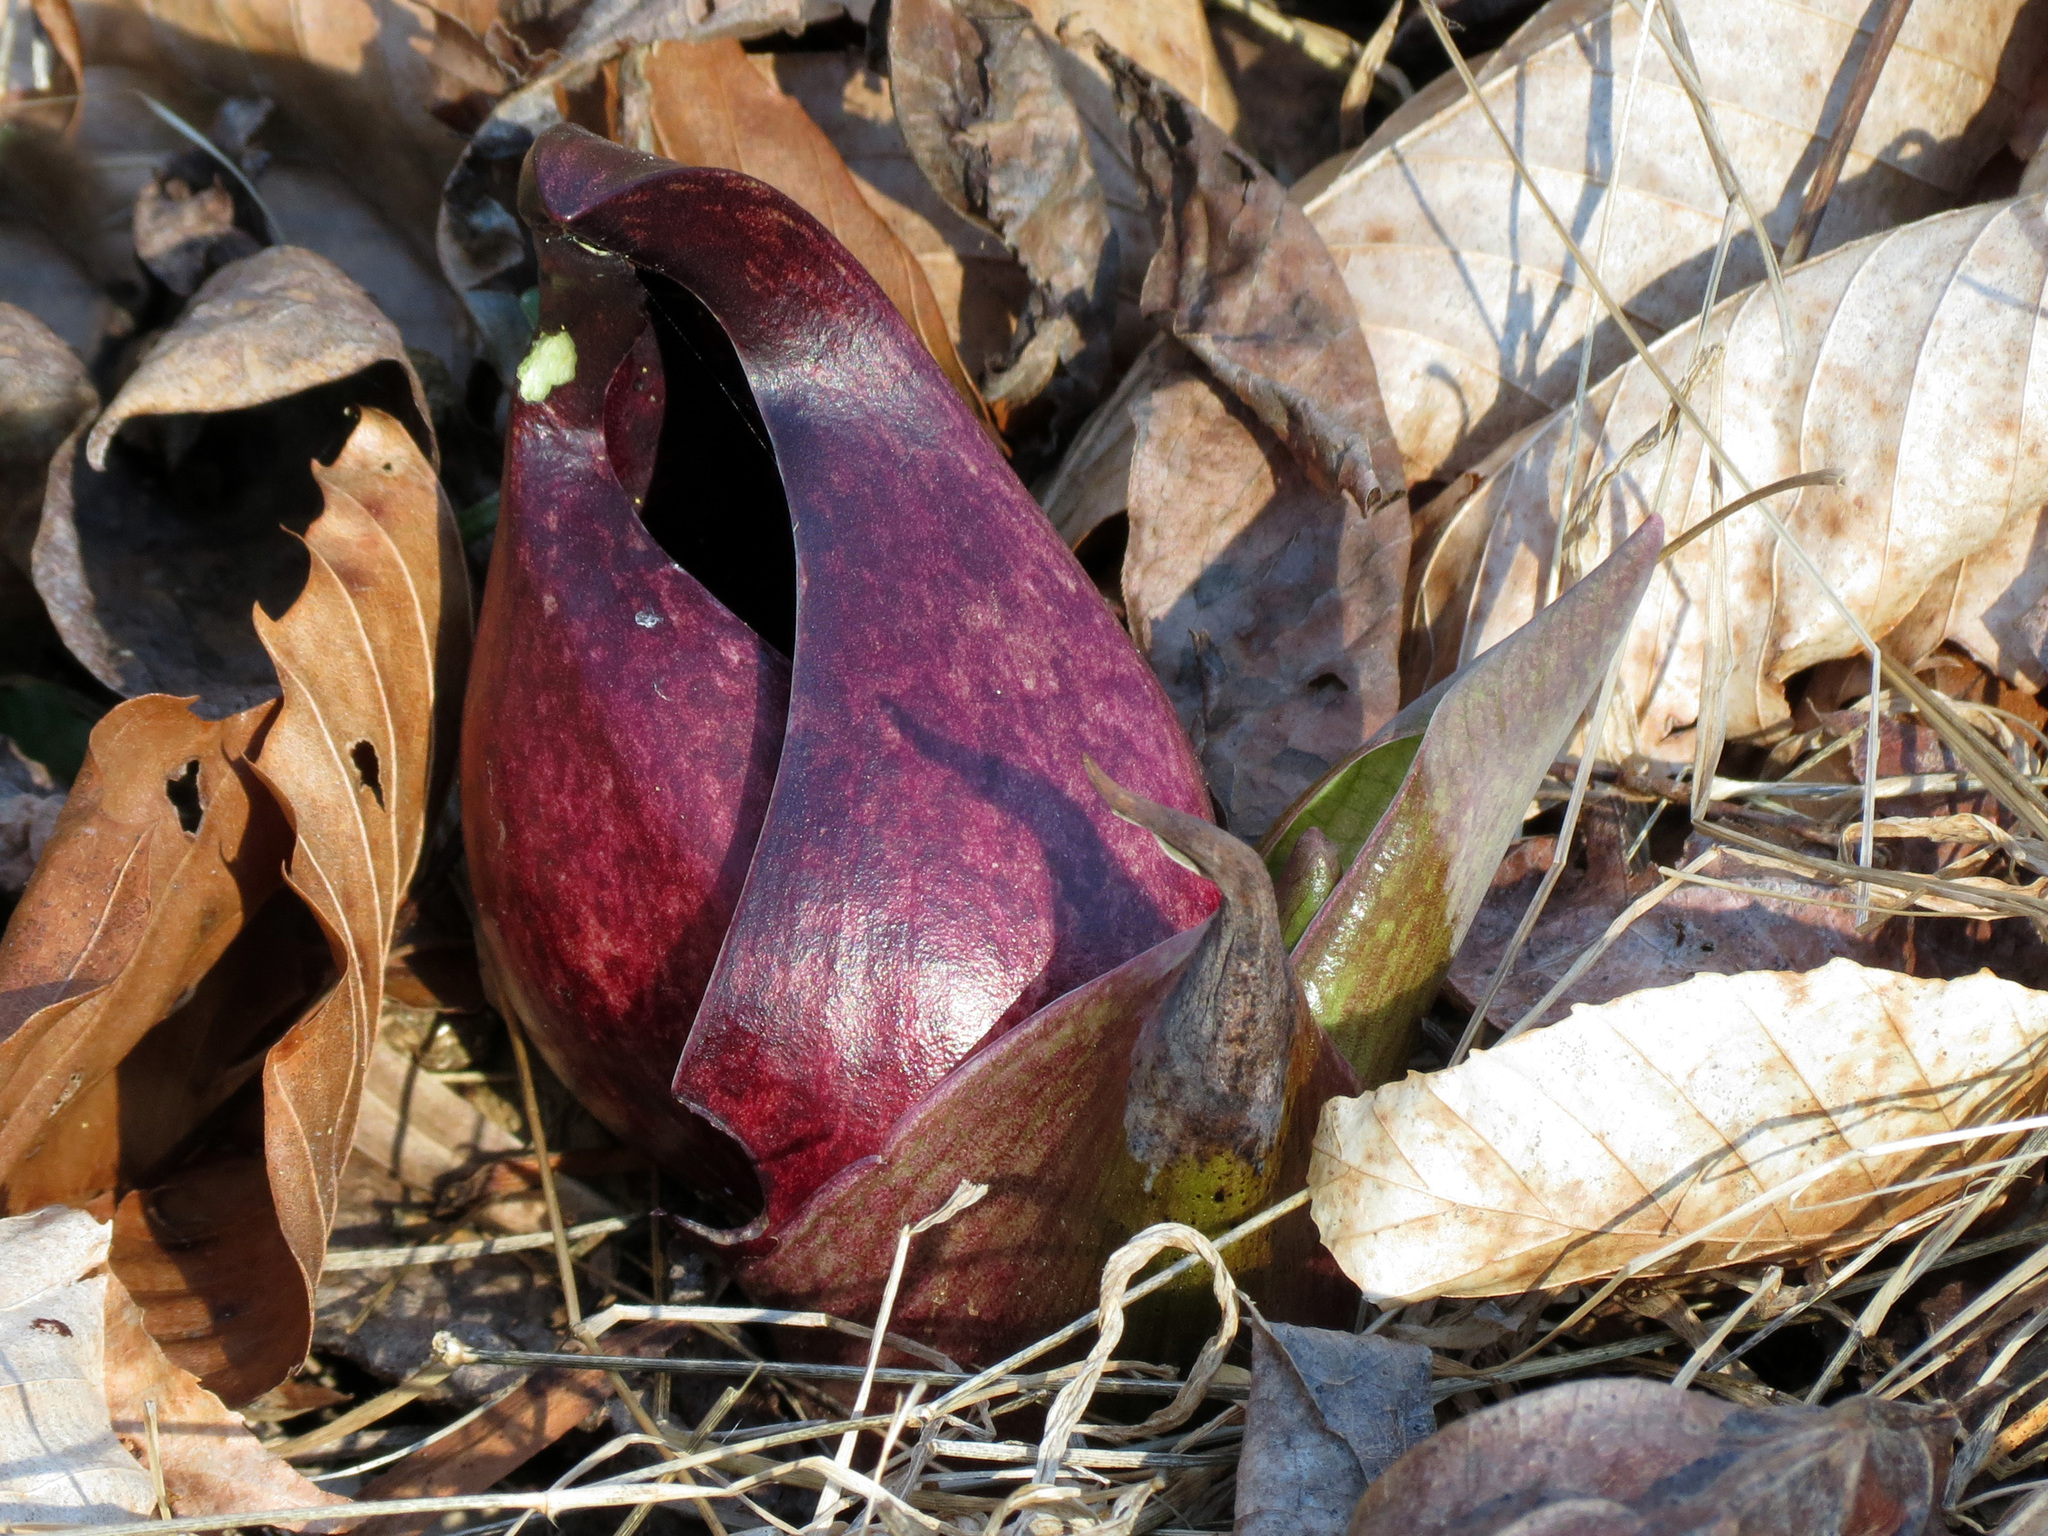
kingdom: Plantae
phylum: Tracheophyta
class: Liliopsida
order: Alismatales
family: Araceae
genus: Symplocarpus
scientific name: Symplocarpus foetidus
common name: Eastern skunk cabbage
